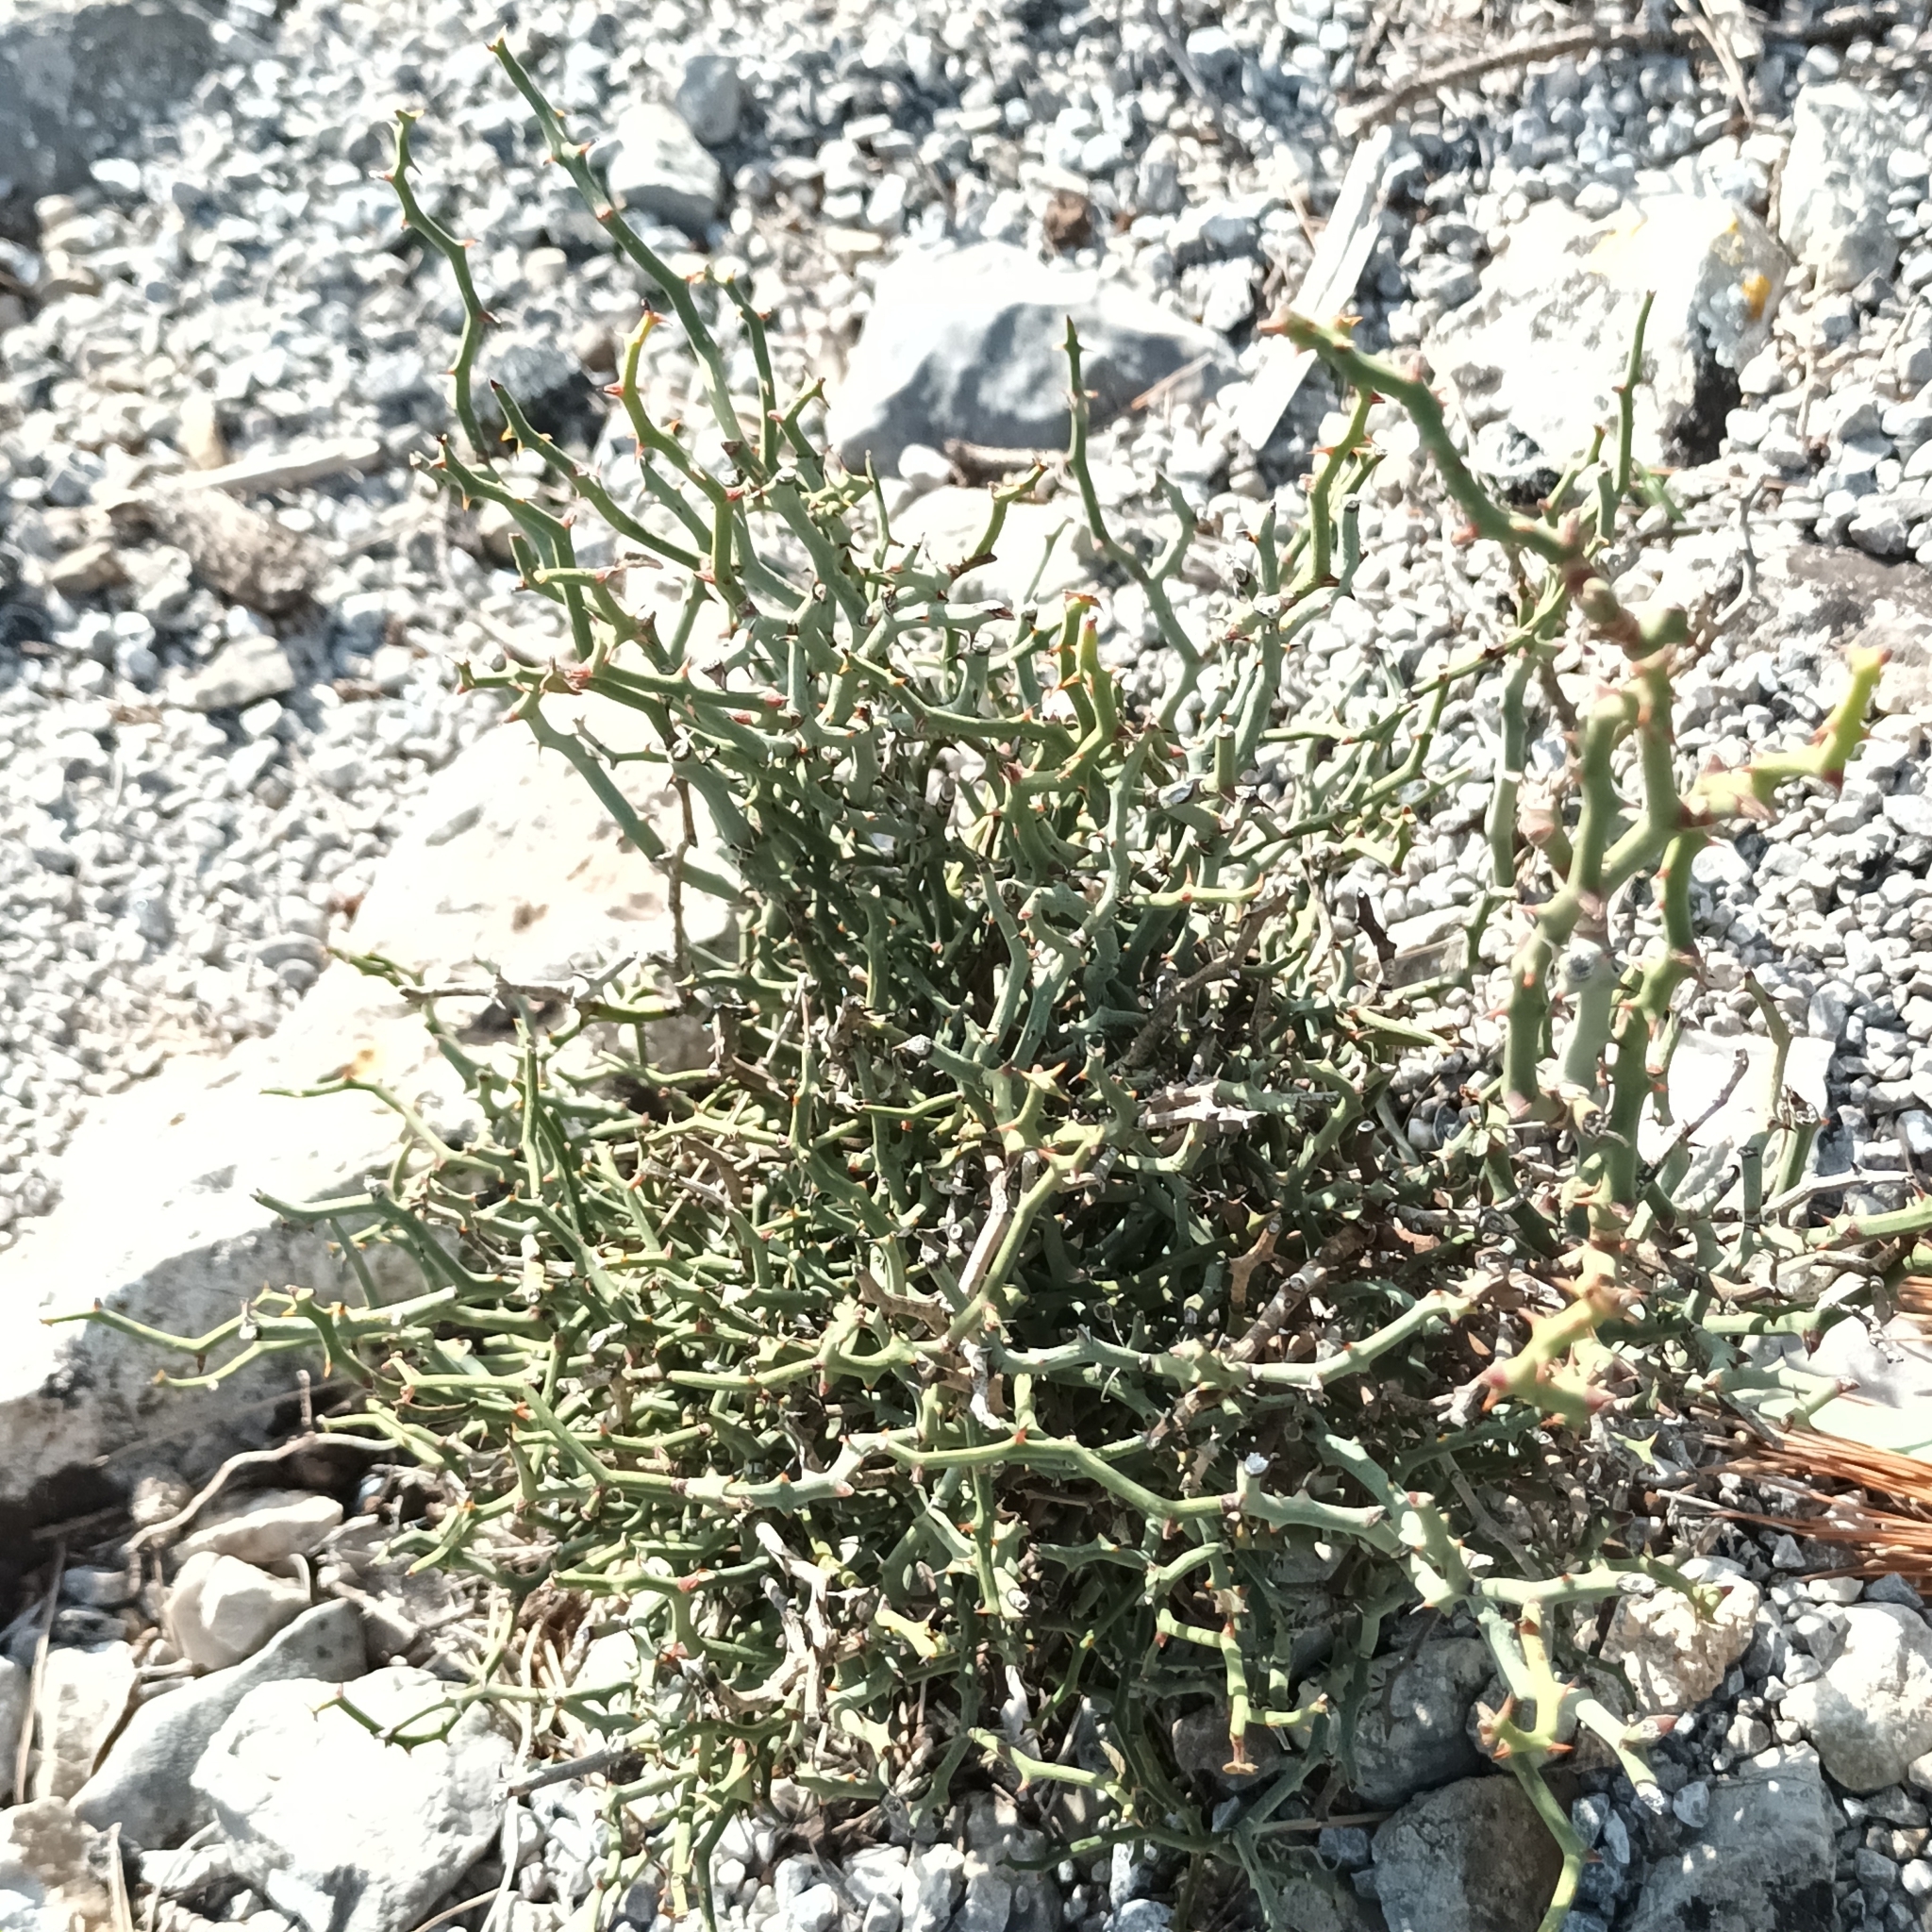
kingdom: Plantae
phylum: Tracheophyta
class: Liliopsida
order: Liliales
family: Smilacaceae
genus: Smilax
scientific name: Smilax aspera
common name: Common smilax
